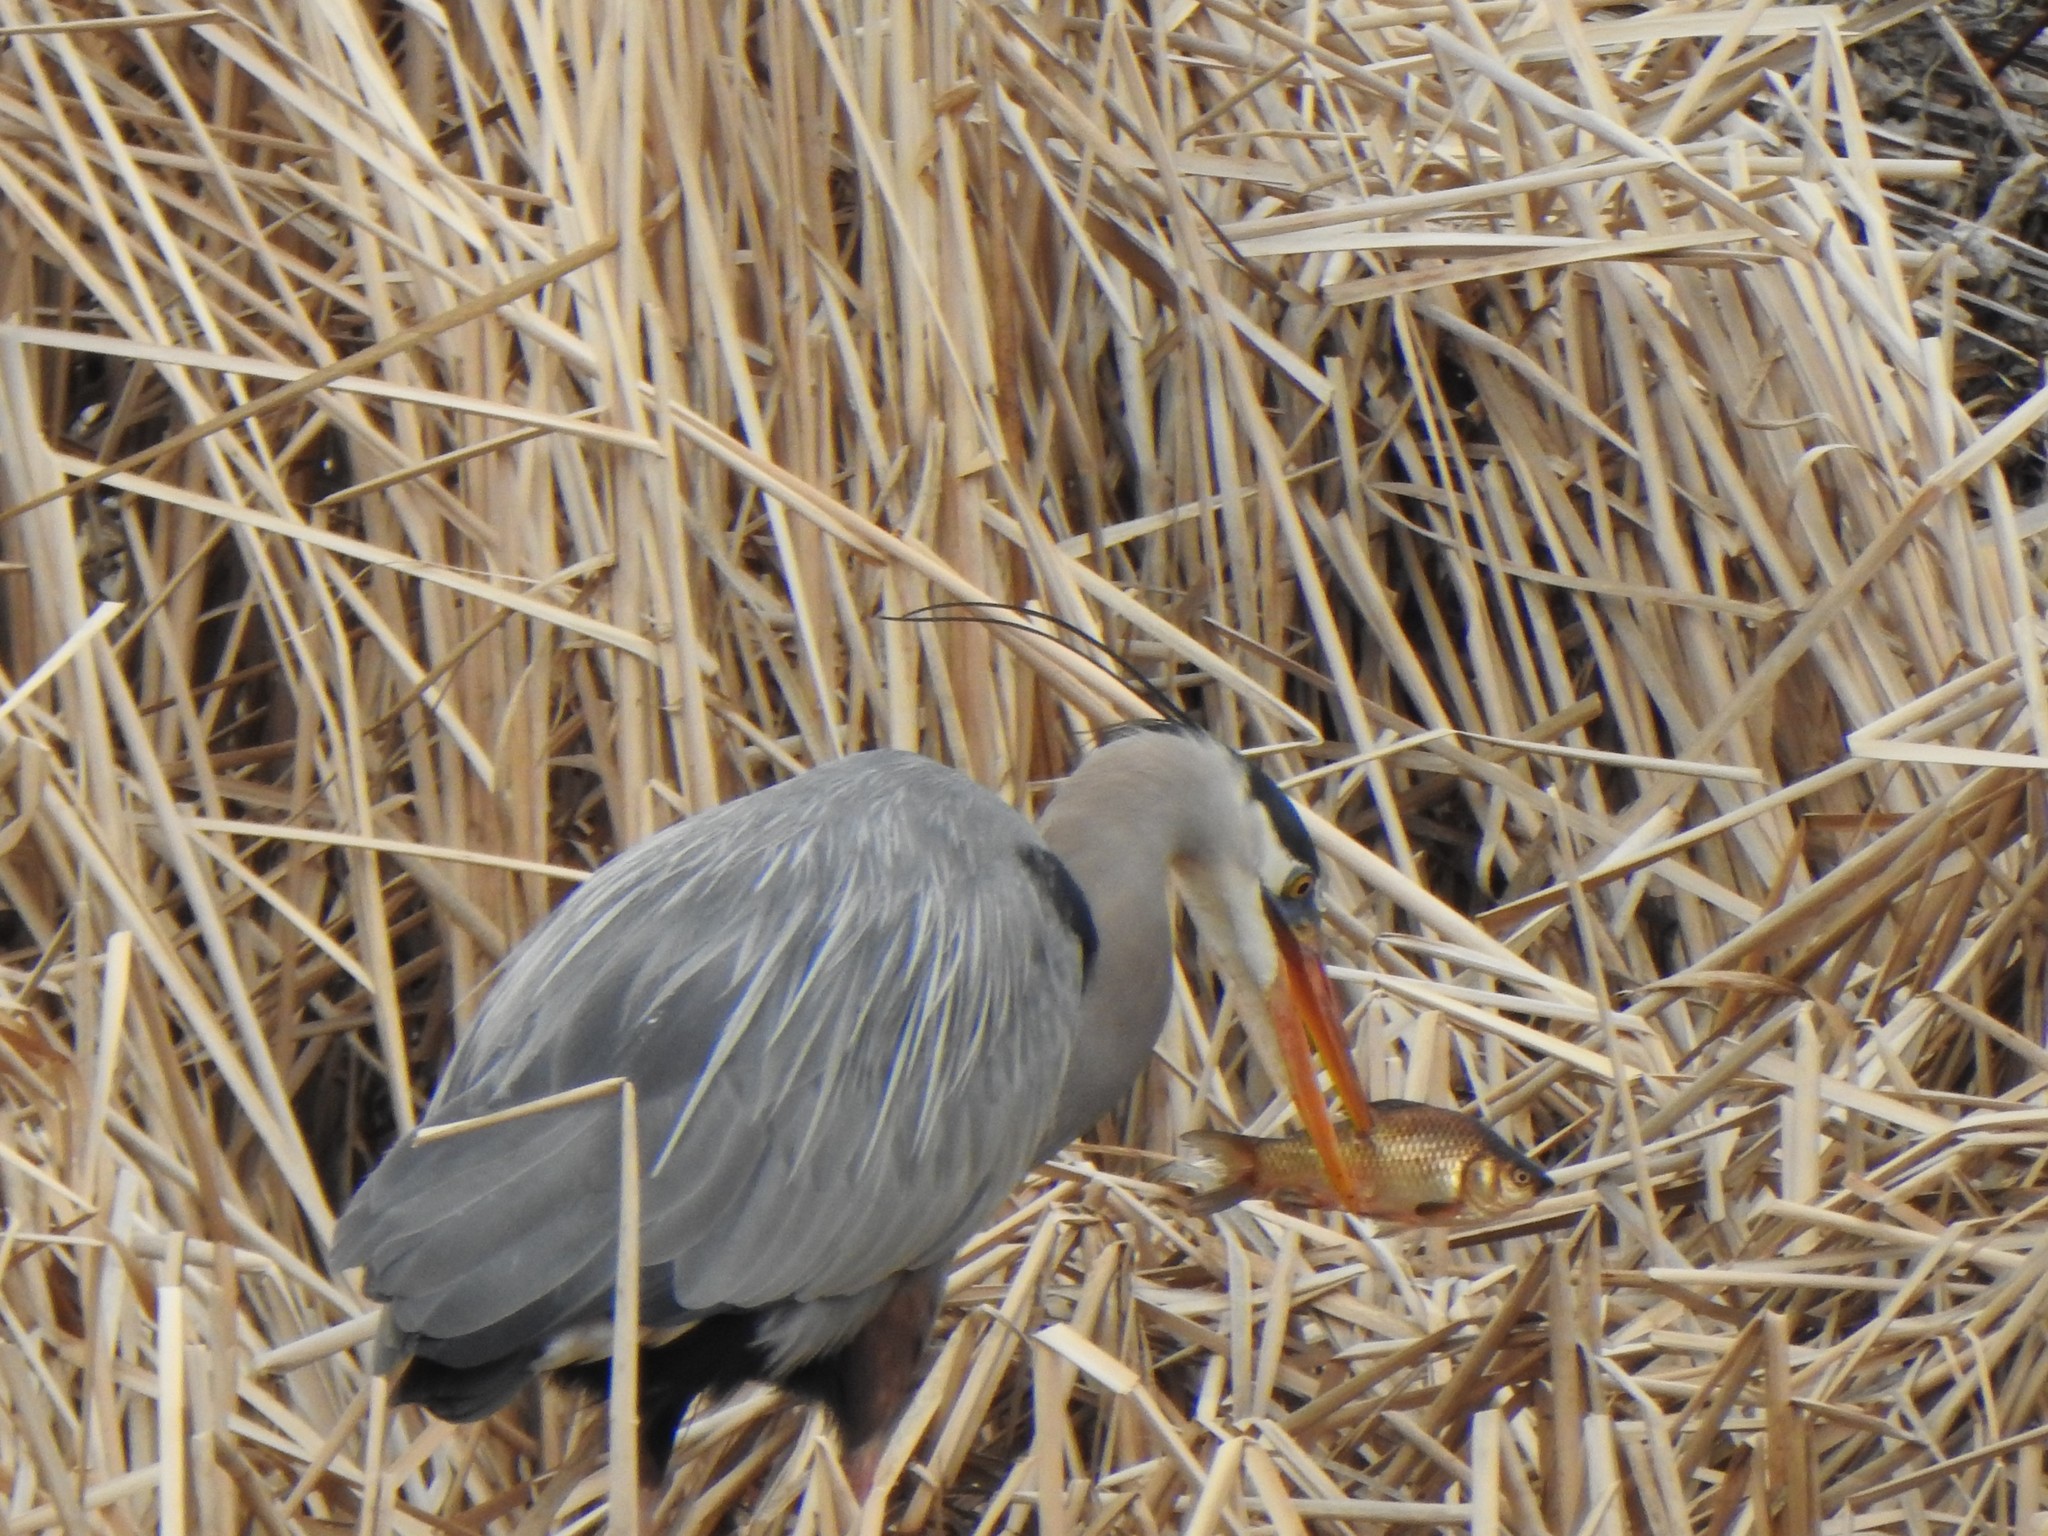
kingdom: Animalia
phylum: Chordata
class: Aves
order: Pelecaniformes
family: Ardeidae
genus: Ardea
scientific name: Ardea herodias
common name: Great blue heron
